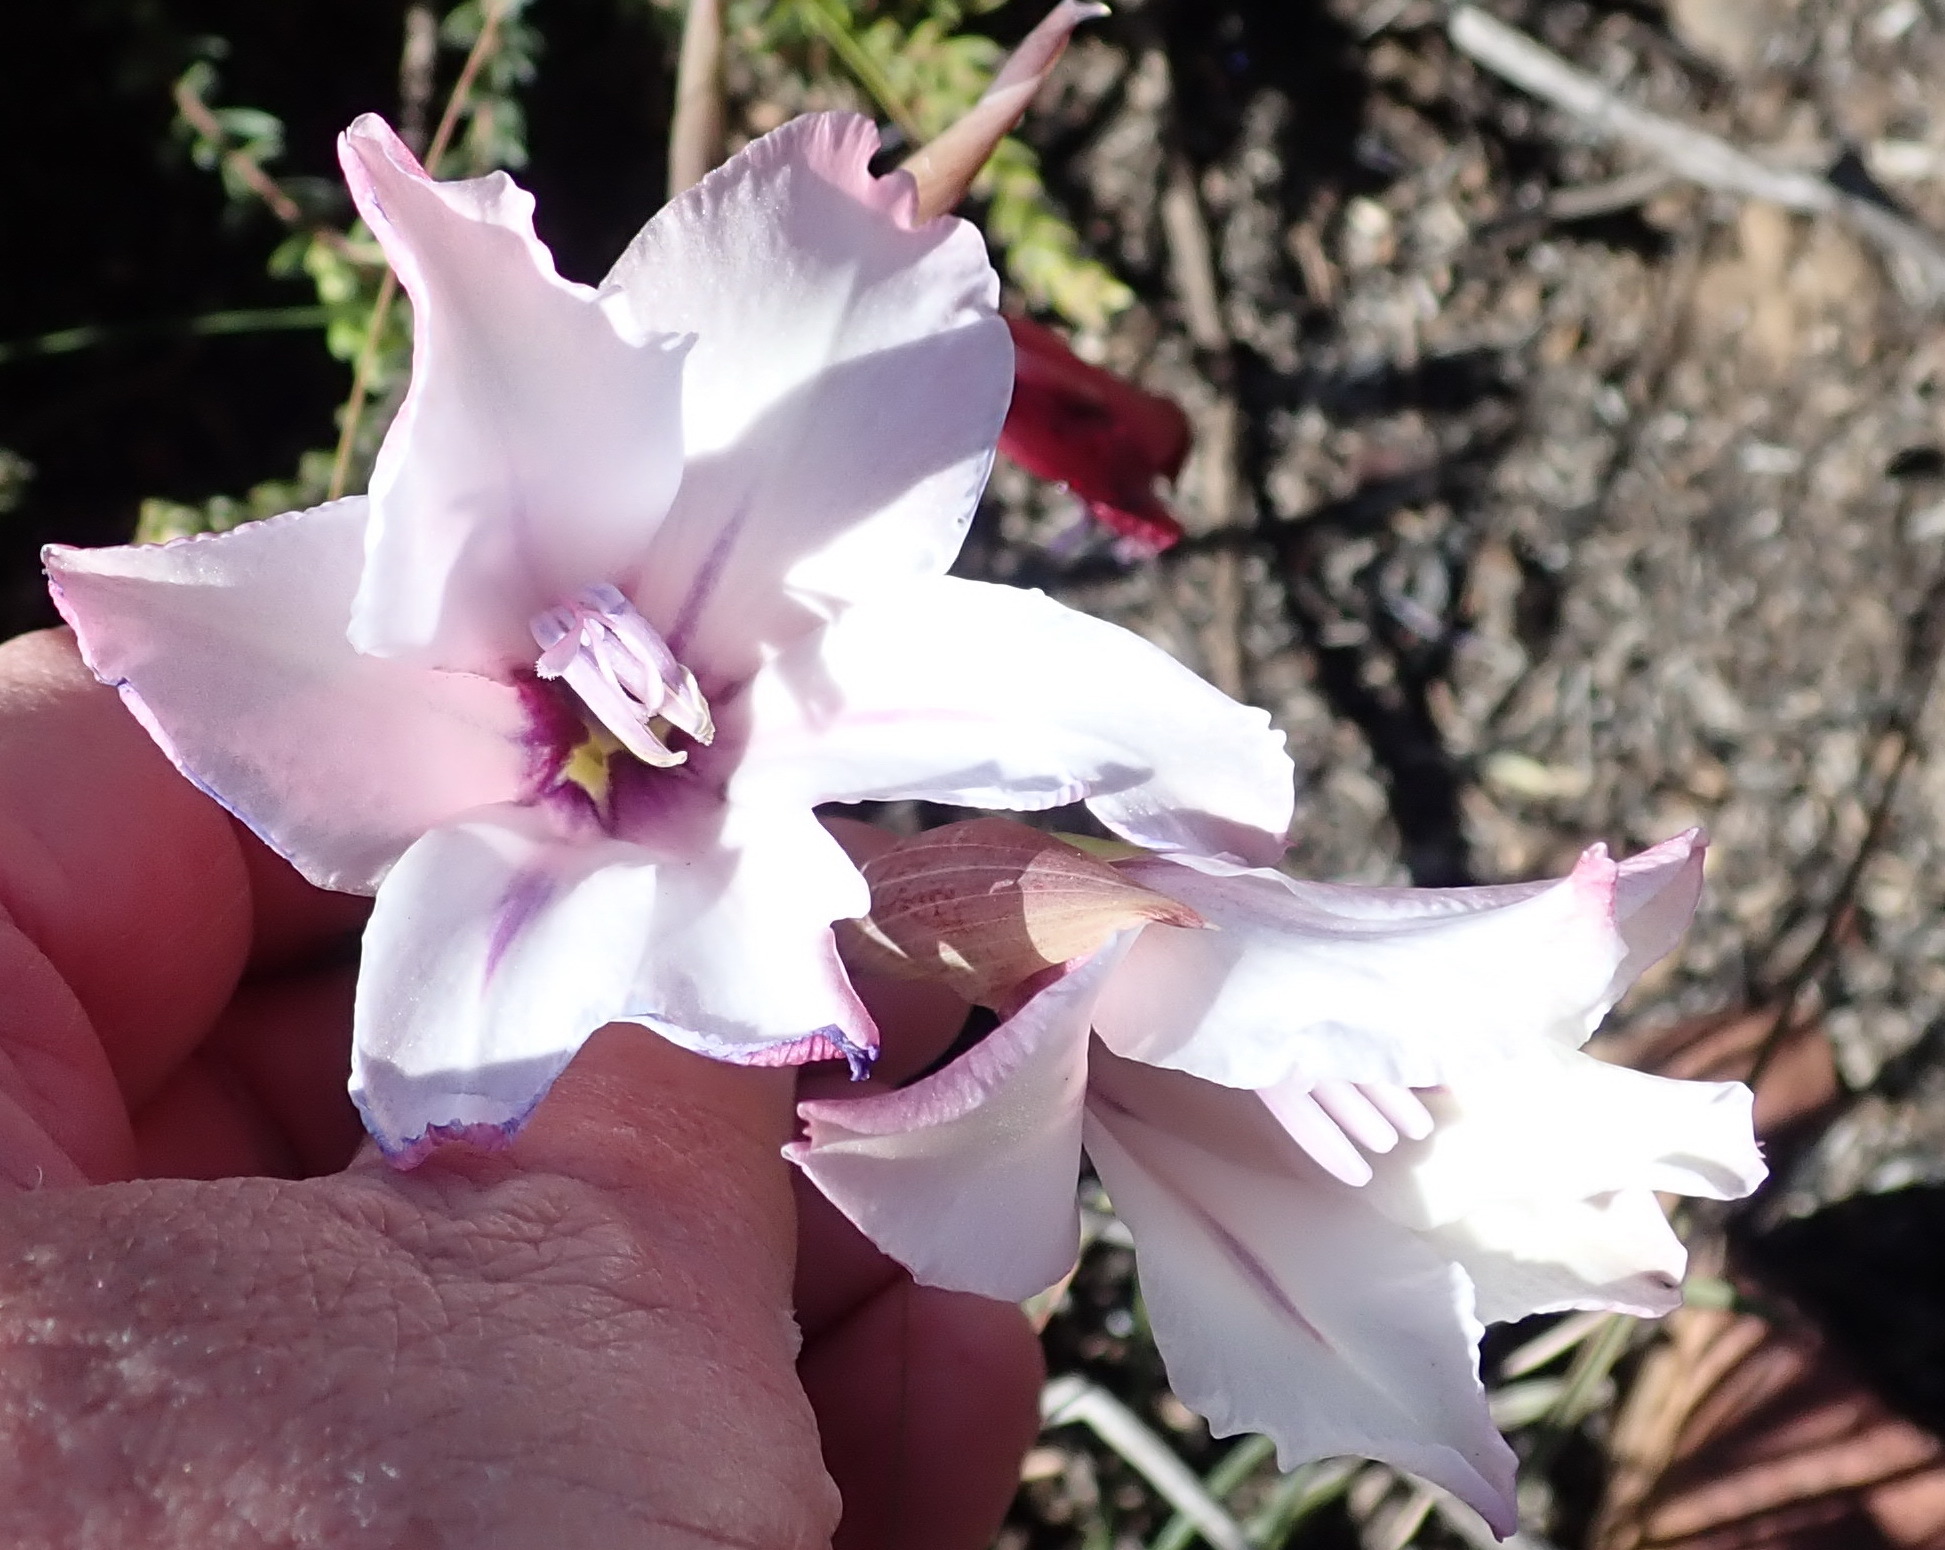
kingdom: Plantae
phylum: Tracheophyta
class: Liliopsida
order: Asparagales
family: Iridaceae
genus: Gladiolus
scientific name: Gladiolus floribundus
